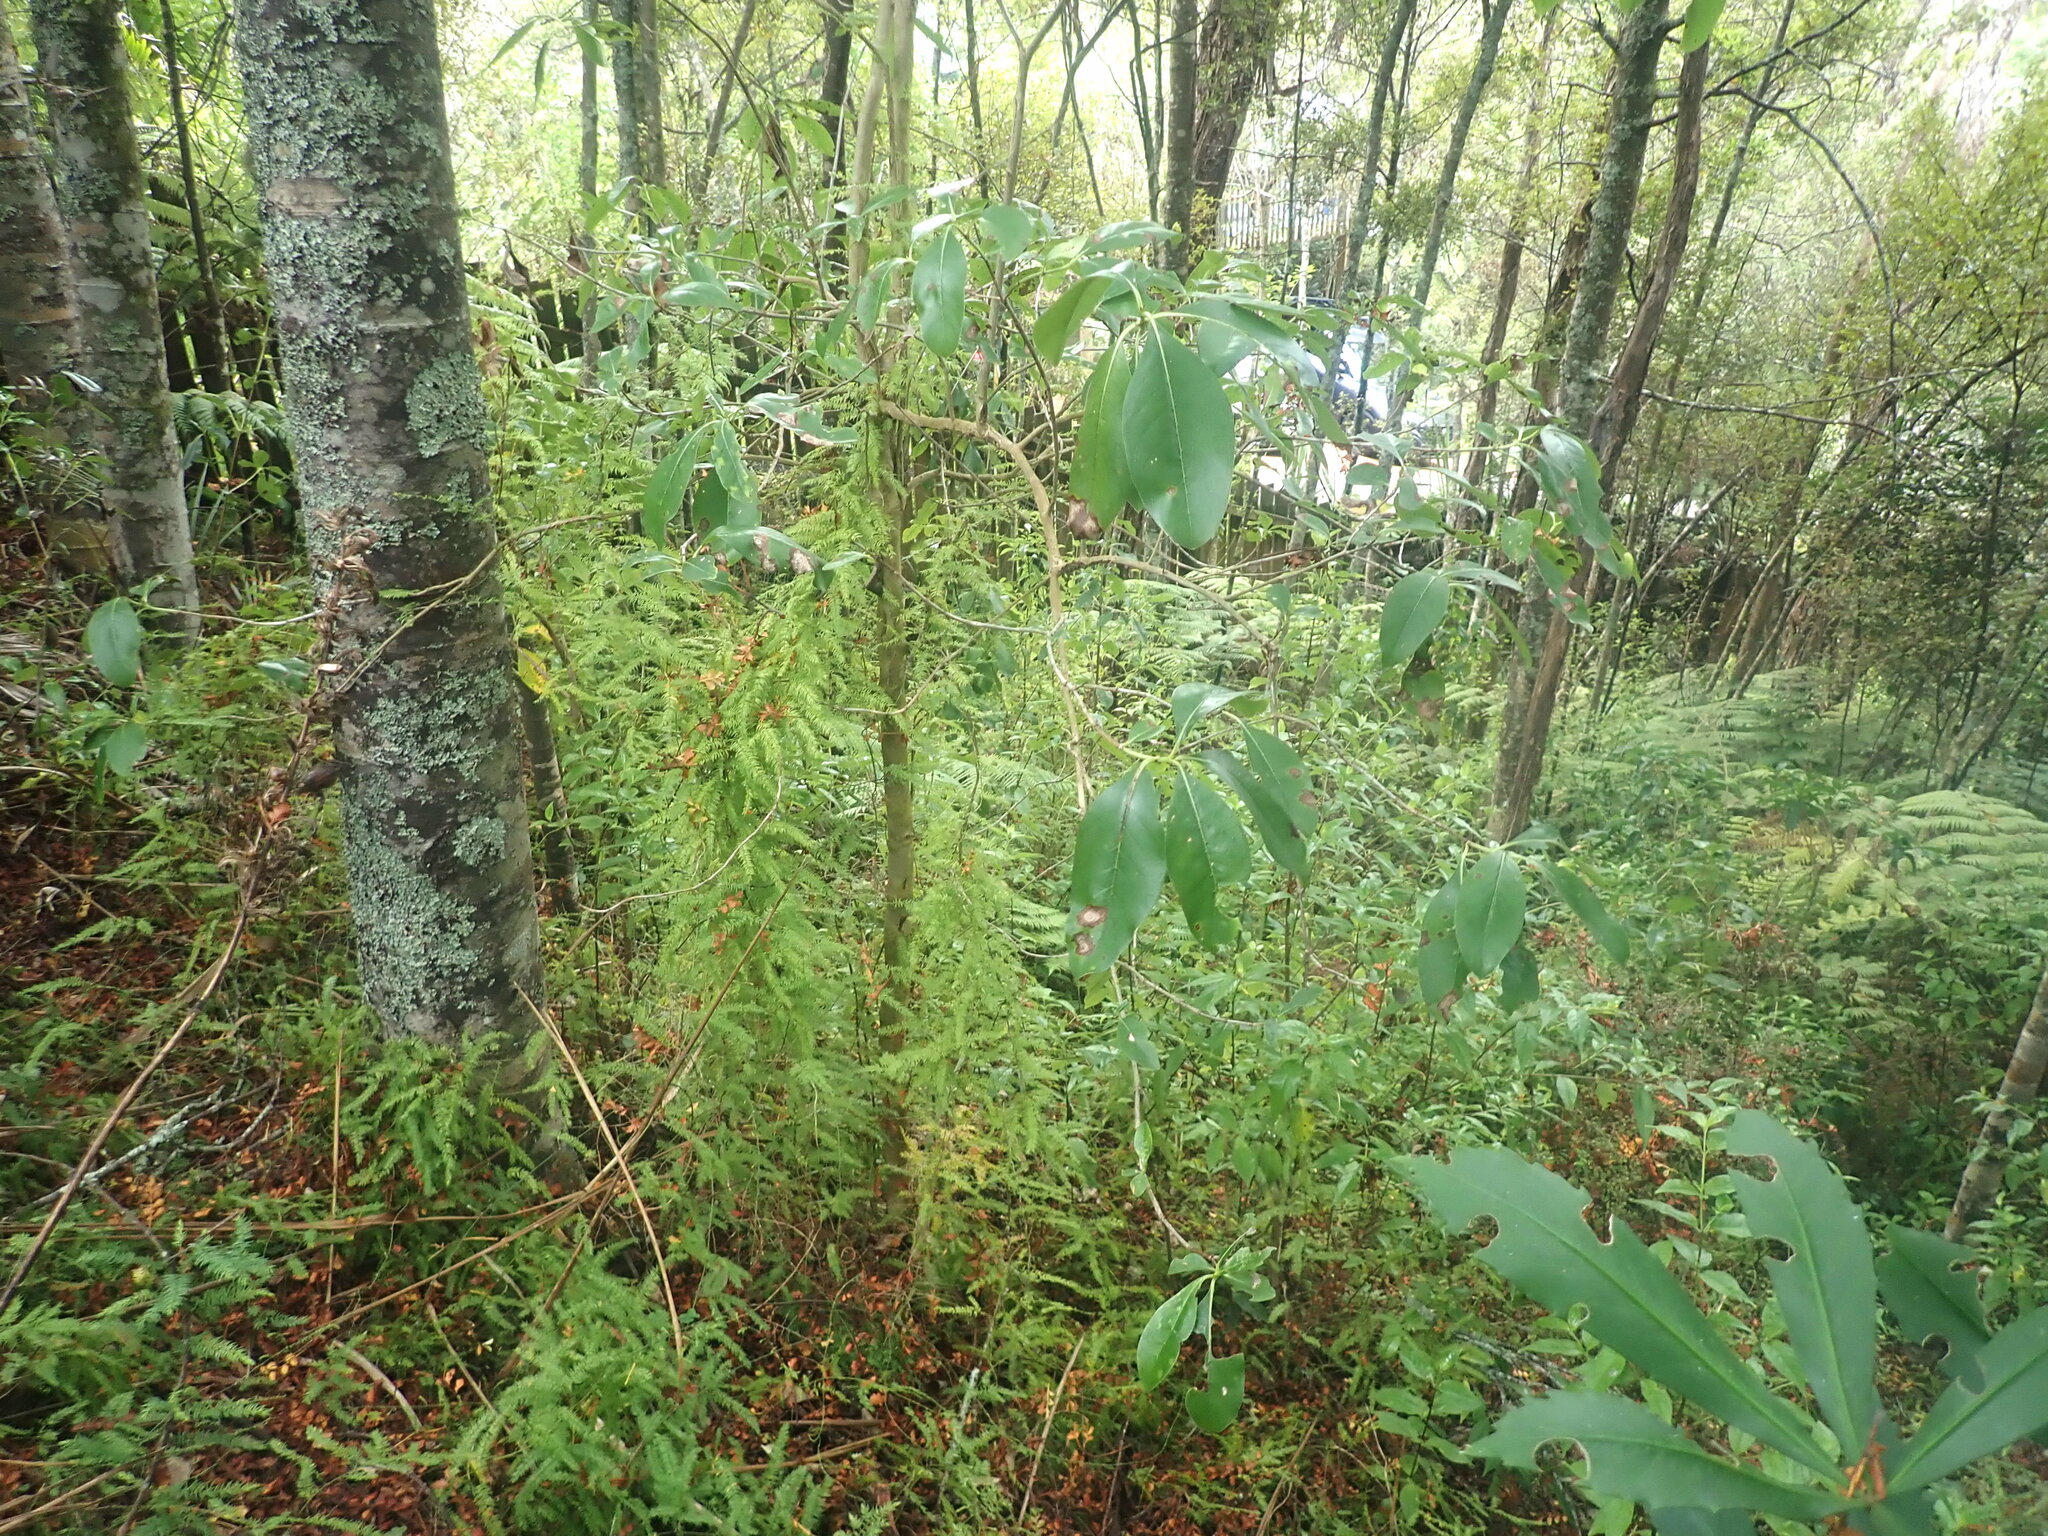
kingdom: Plantae
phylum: Tracheophyta
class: Magnoliopsida
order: Gentianales
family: Rubiaceae
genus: Coprosma
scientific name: Coprosma lucida
